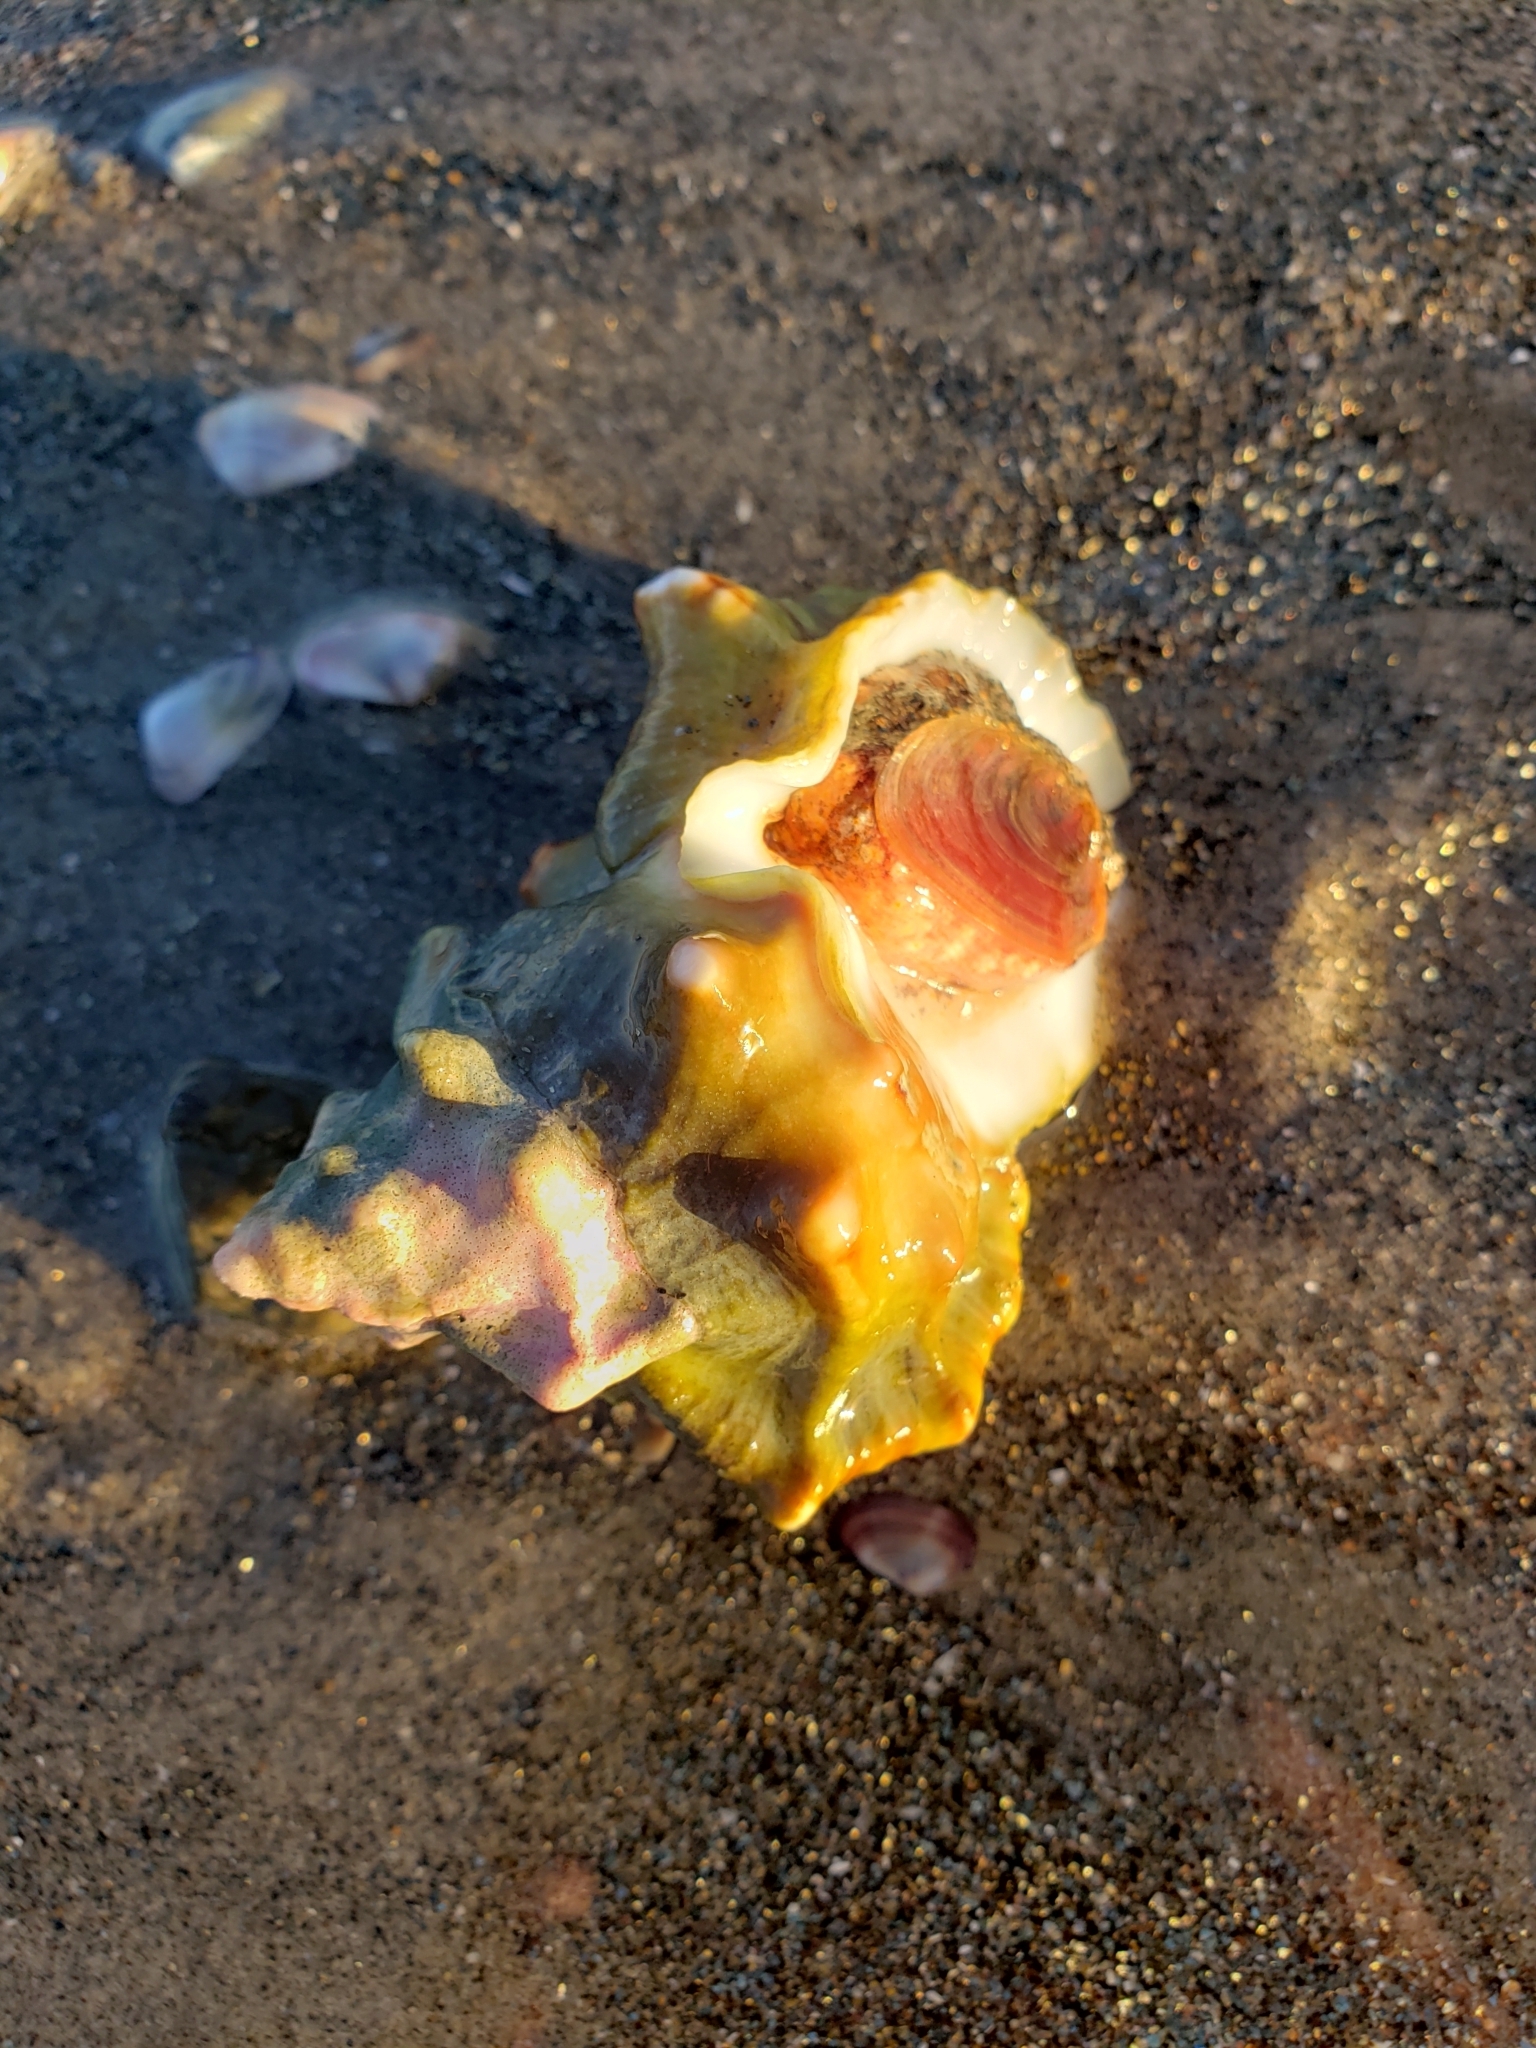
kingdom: Animalia
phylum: Mollusca
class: Gastropoda
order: Littorinimorpha
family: Bursidae
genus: Crossata
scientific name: Crossata californica
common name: California frogsnail
